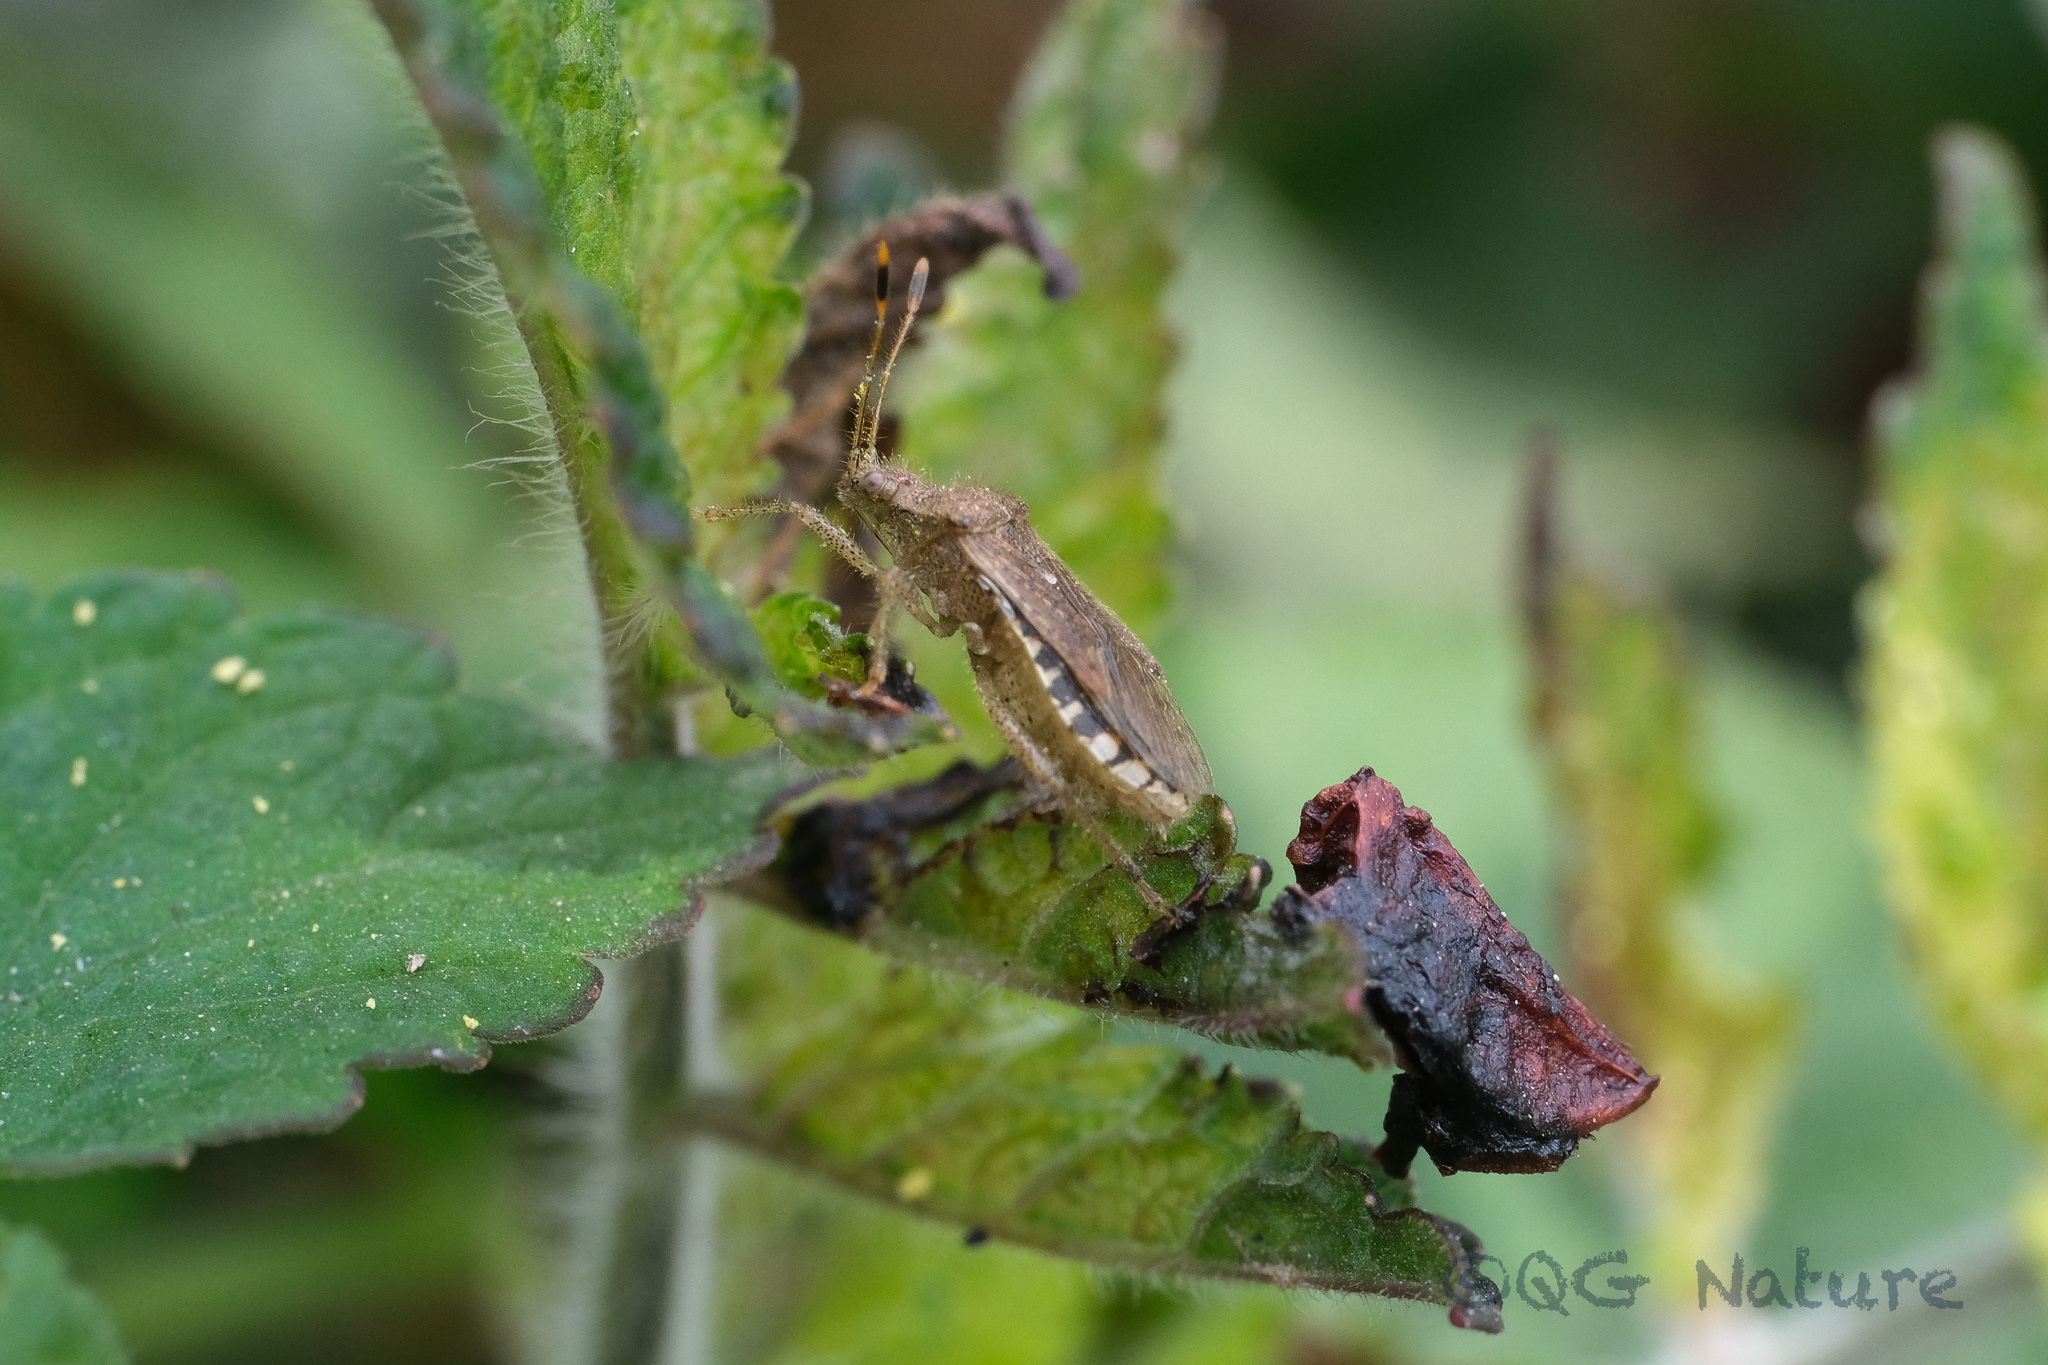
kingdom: Animalia
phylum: Arthropoda
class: Insecta
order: Hemiptera
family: Rhopalidae
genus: Rhopalus
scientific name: Rhopalus sapporensis
